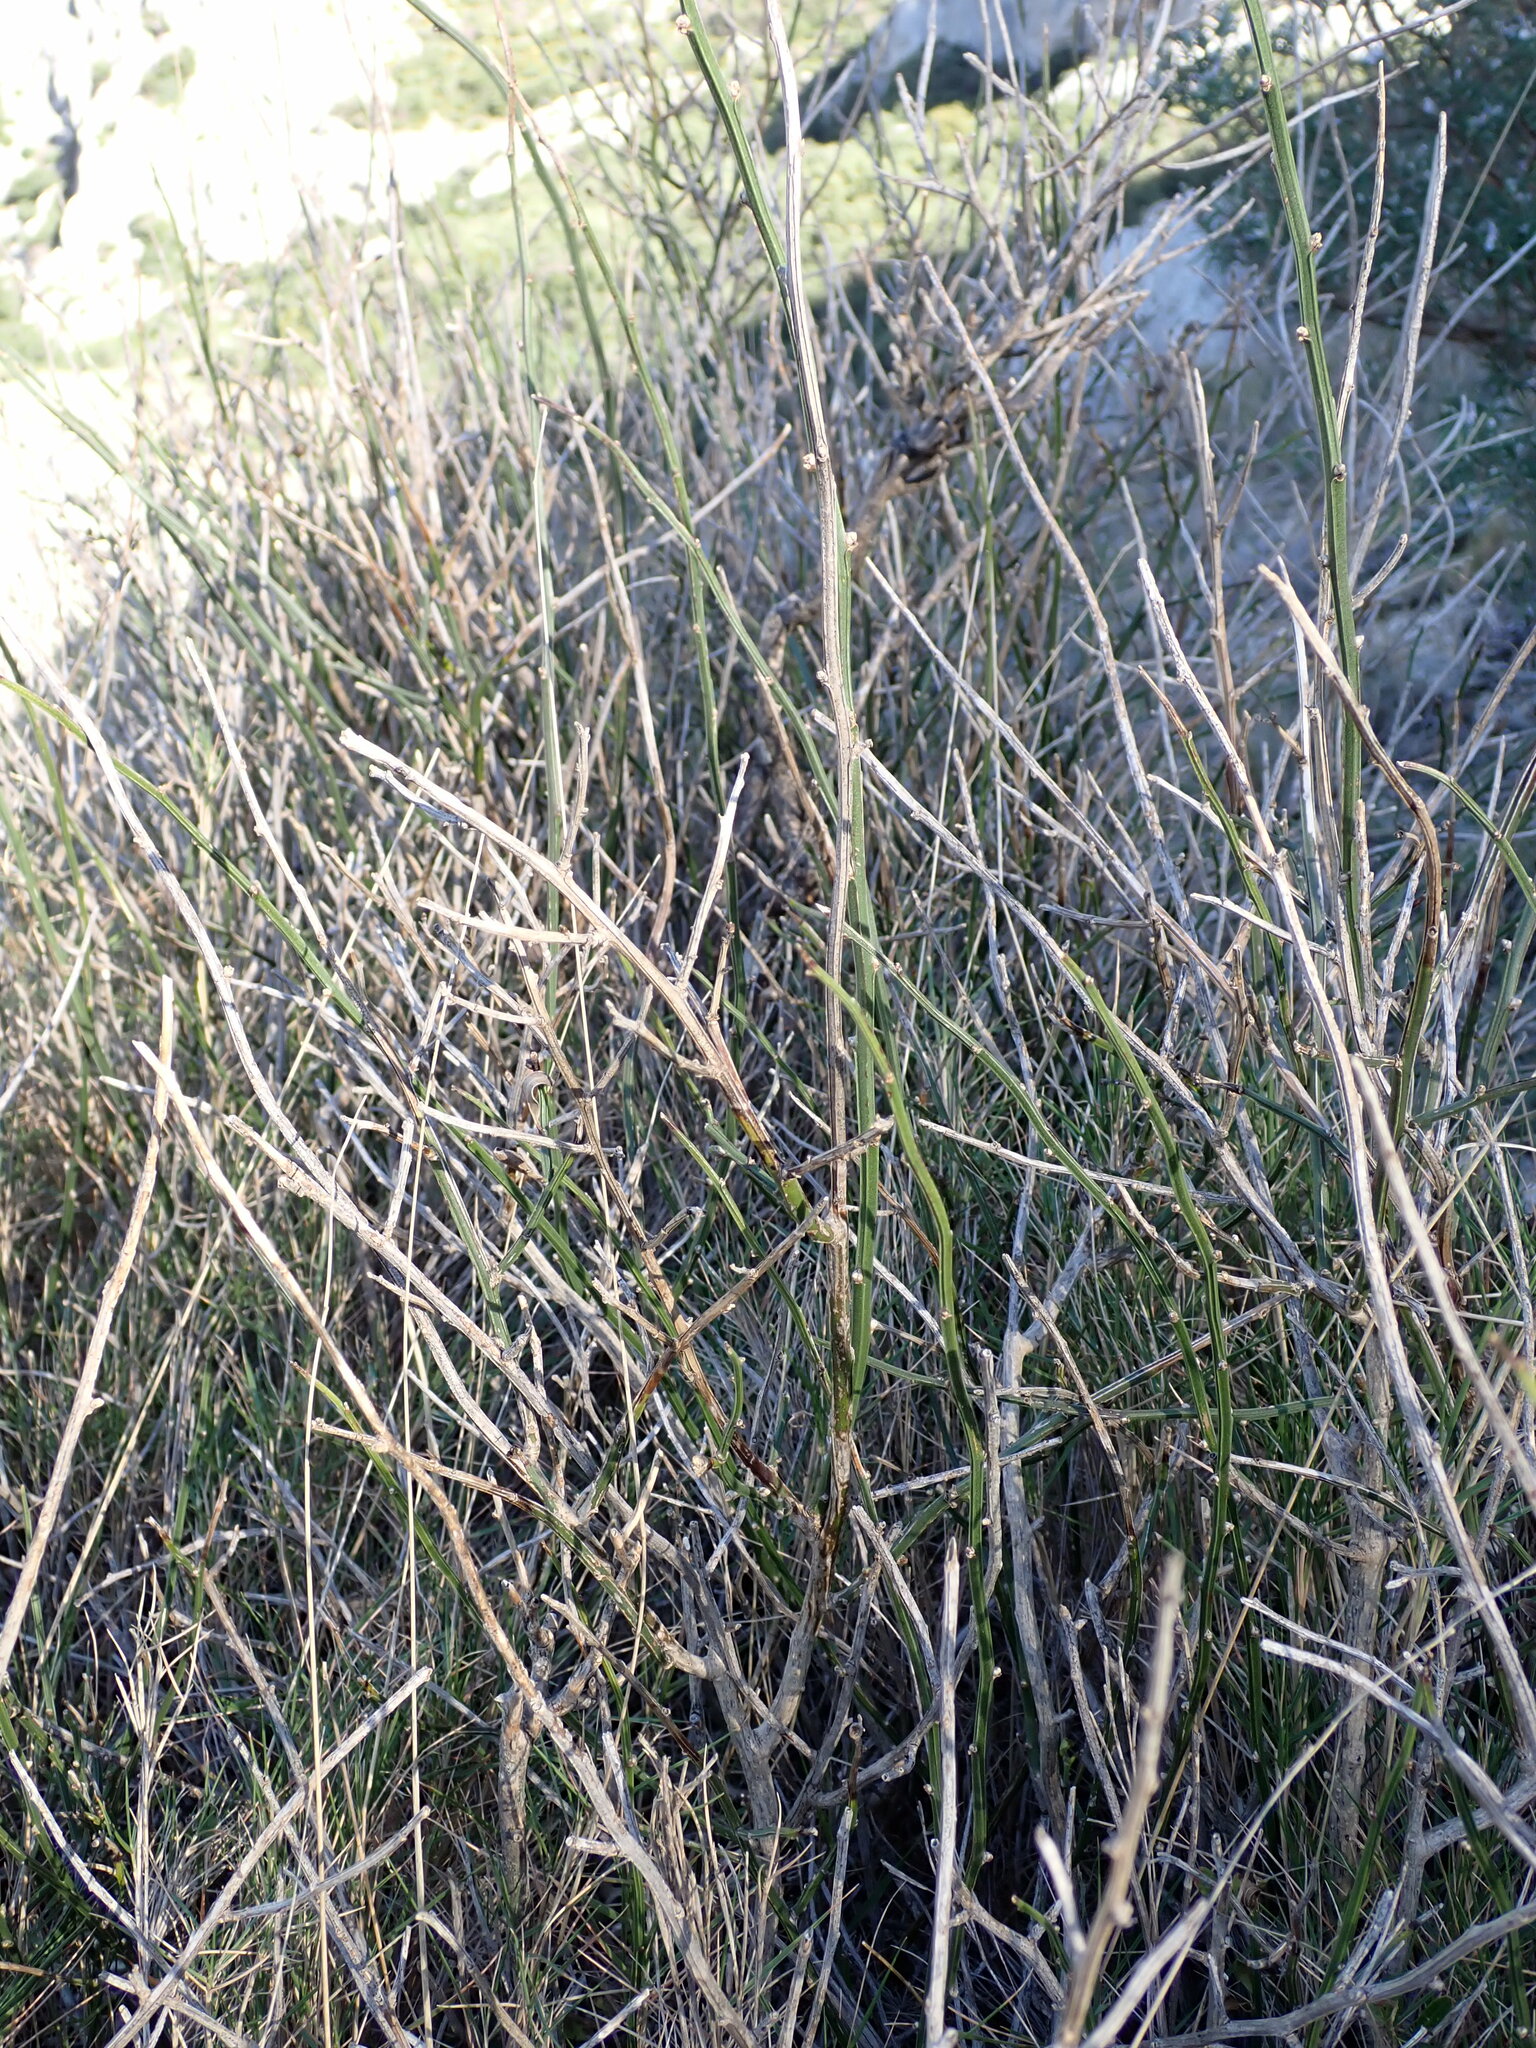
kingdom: Plantae
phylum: Tracheophyta
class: Magnoliopsida
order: Lamiales
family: Oleaceae
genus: Chrysojasminum
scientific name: Chrysojasminum fruticans
